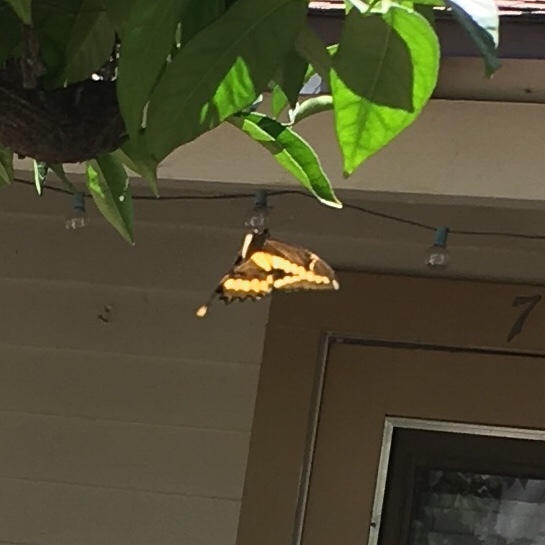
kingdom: Animalia
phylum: Arthropoda
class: Insecta
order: Lepidoptera
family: Papilionidae
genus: Papilio
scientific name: Papilio rumiko
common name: Western giant swallowtail
